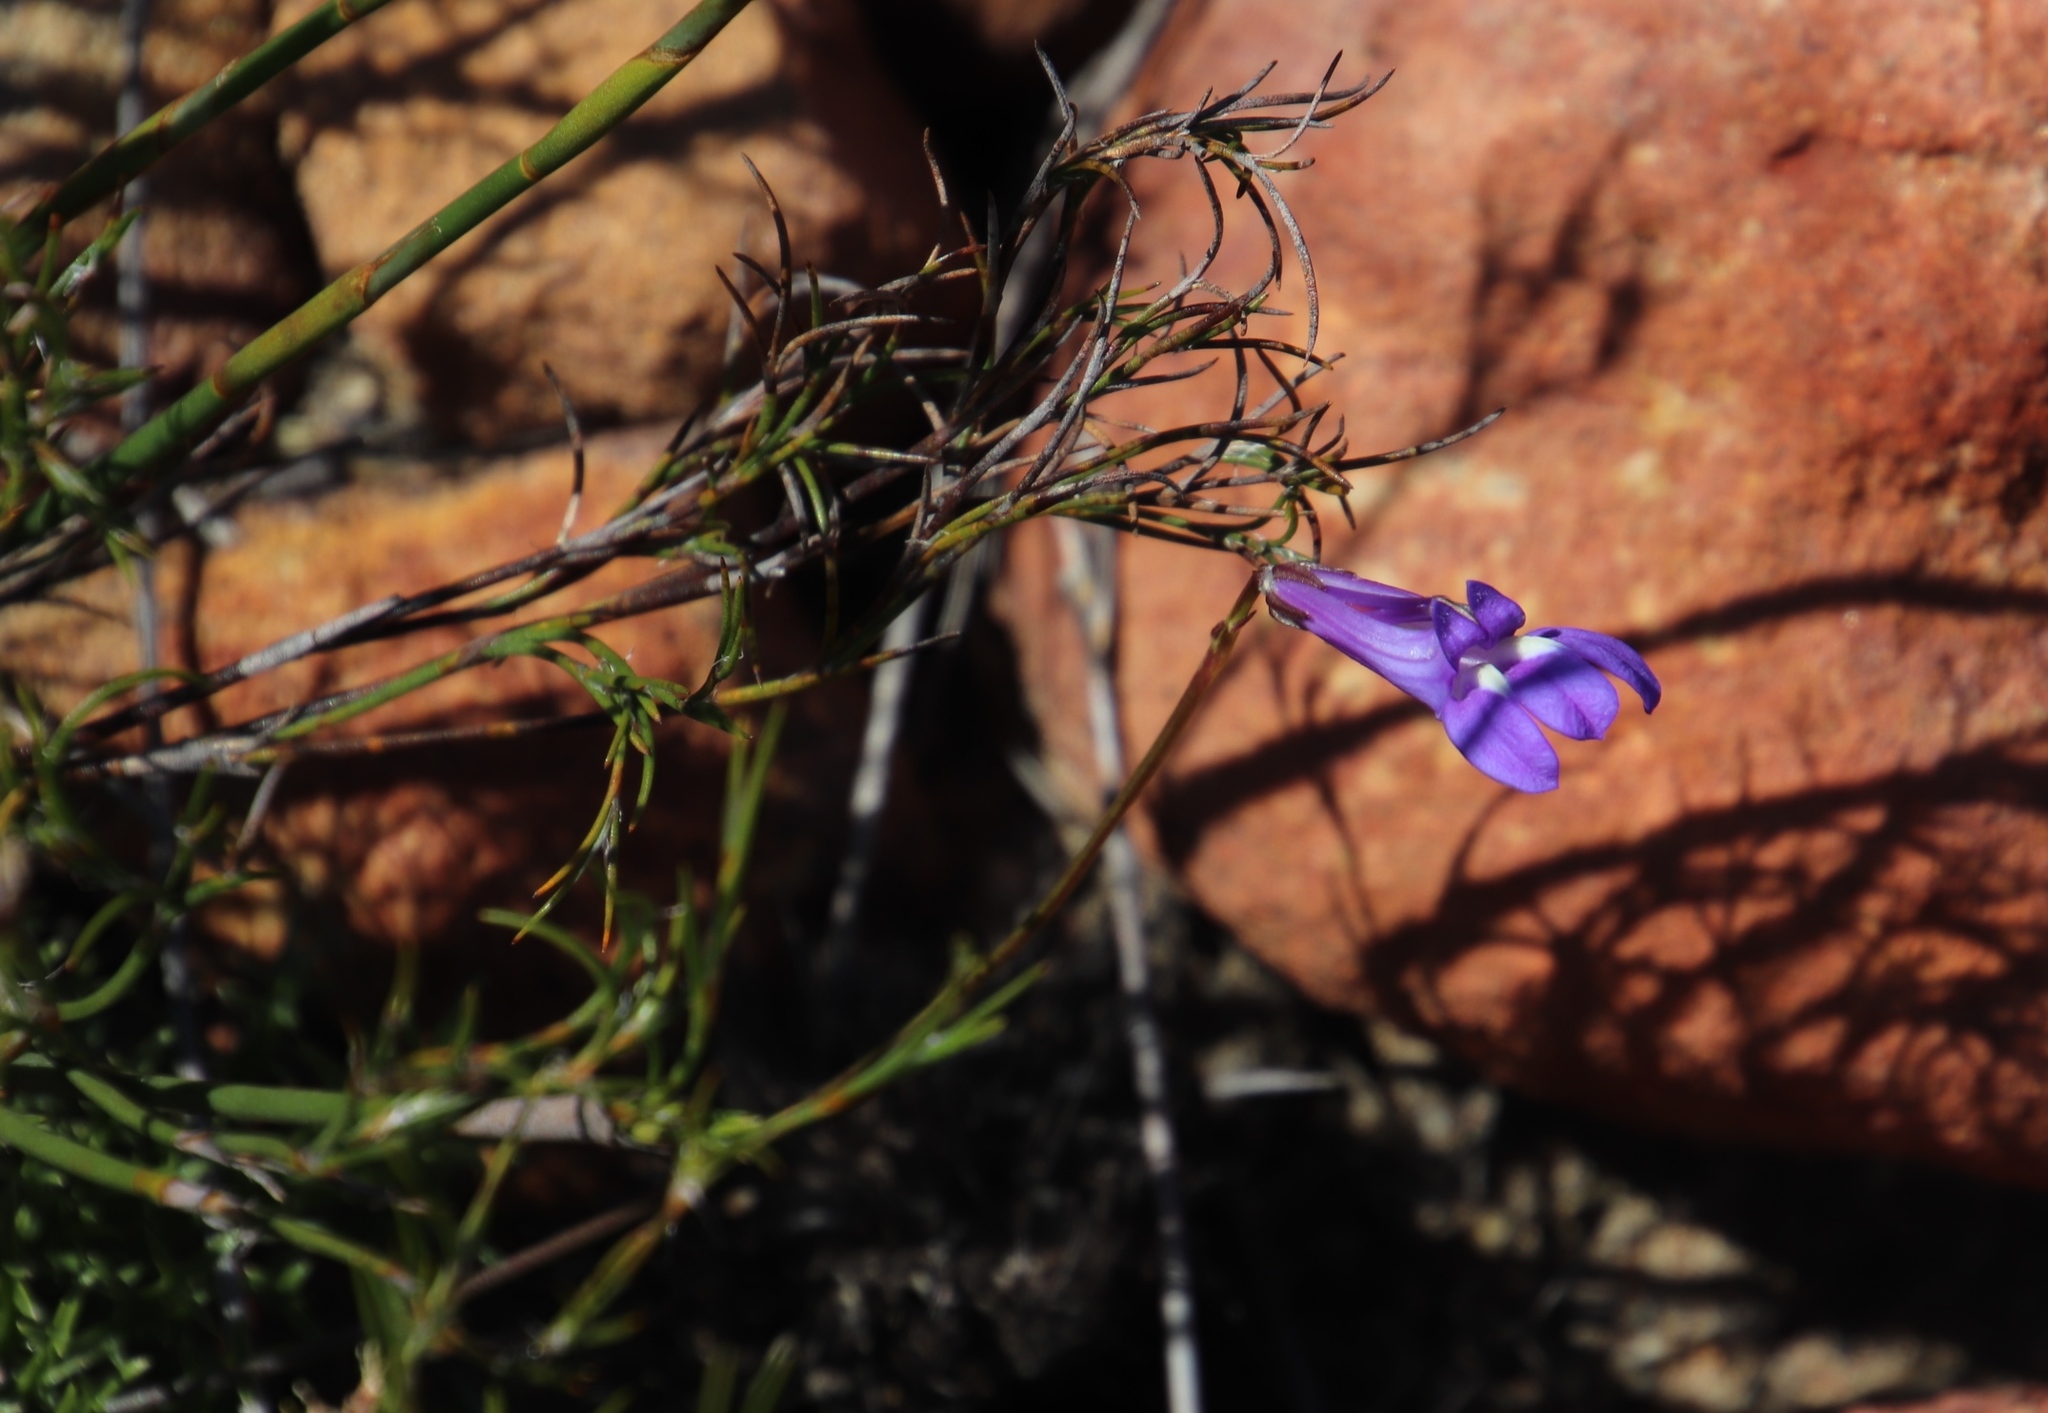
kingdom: Plantae
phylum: Tracheophyta
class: Magnoliopsida
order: Asterales
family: Campanulaceae
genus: Lobelia
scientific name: Lobelia coronopifolia
